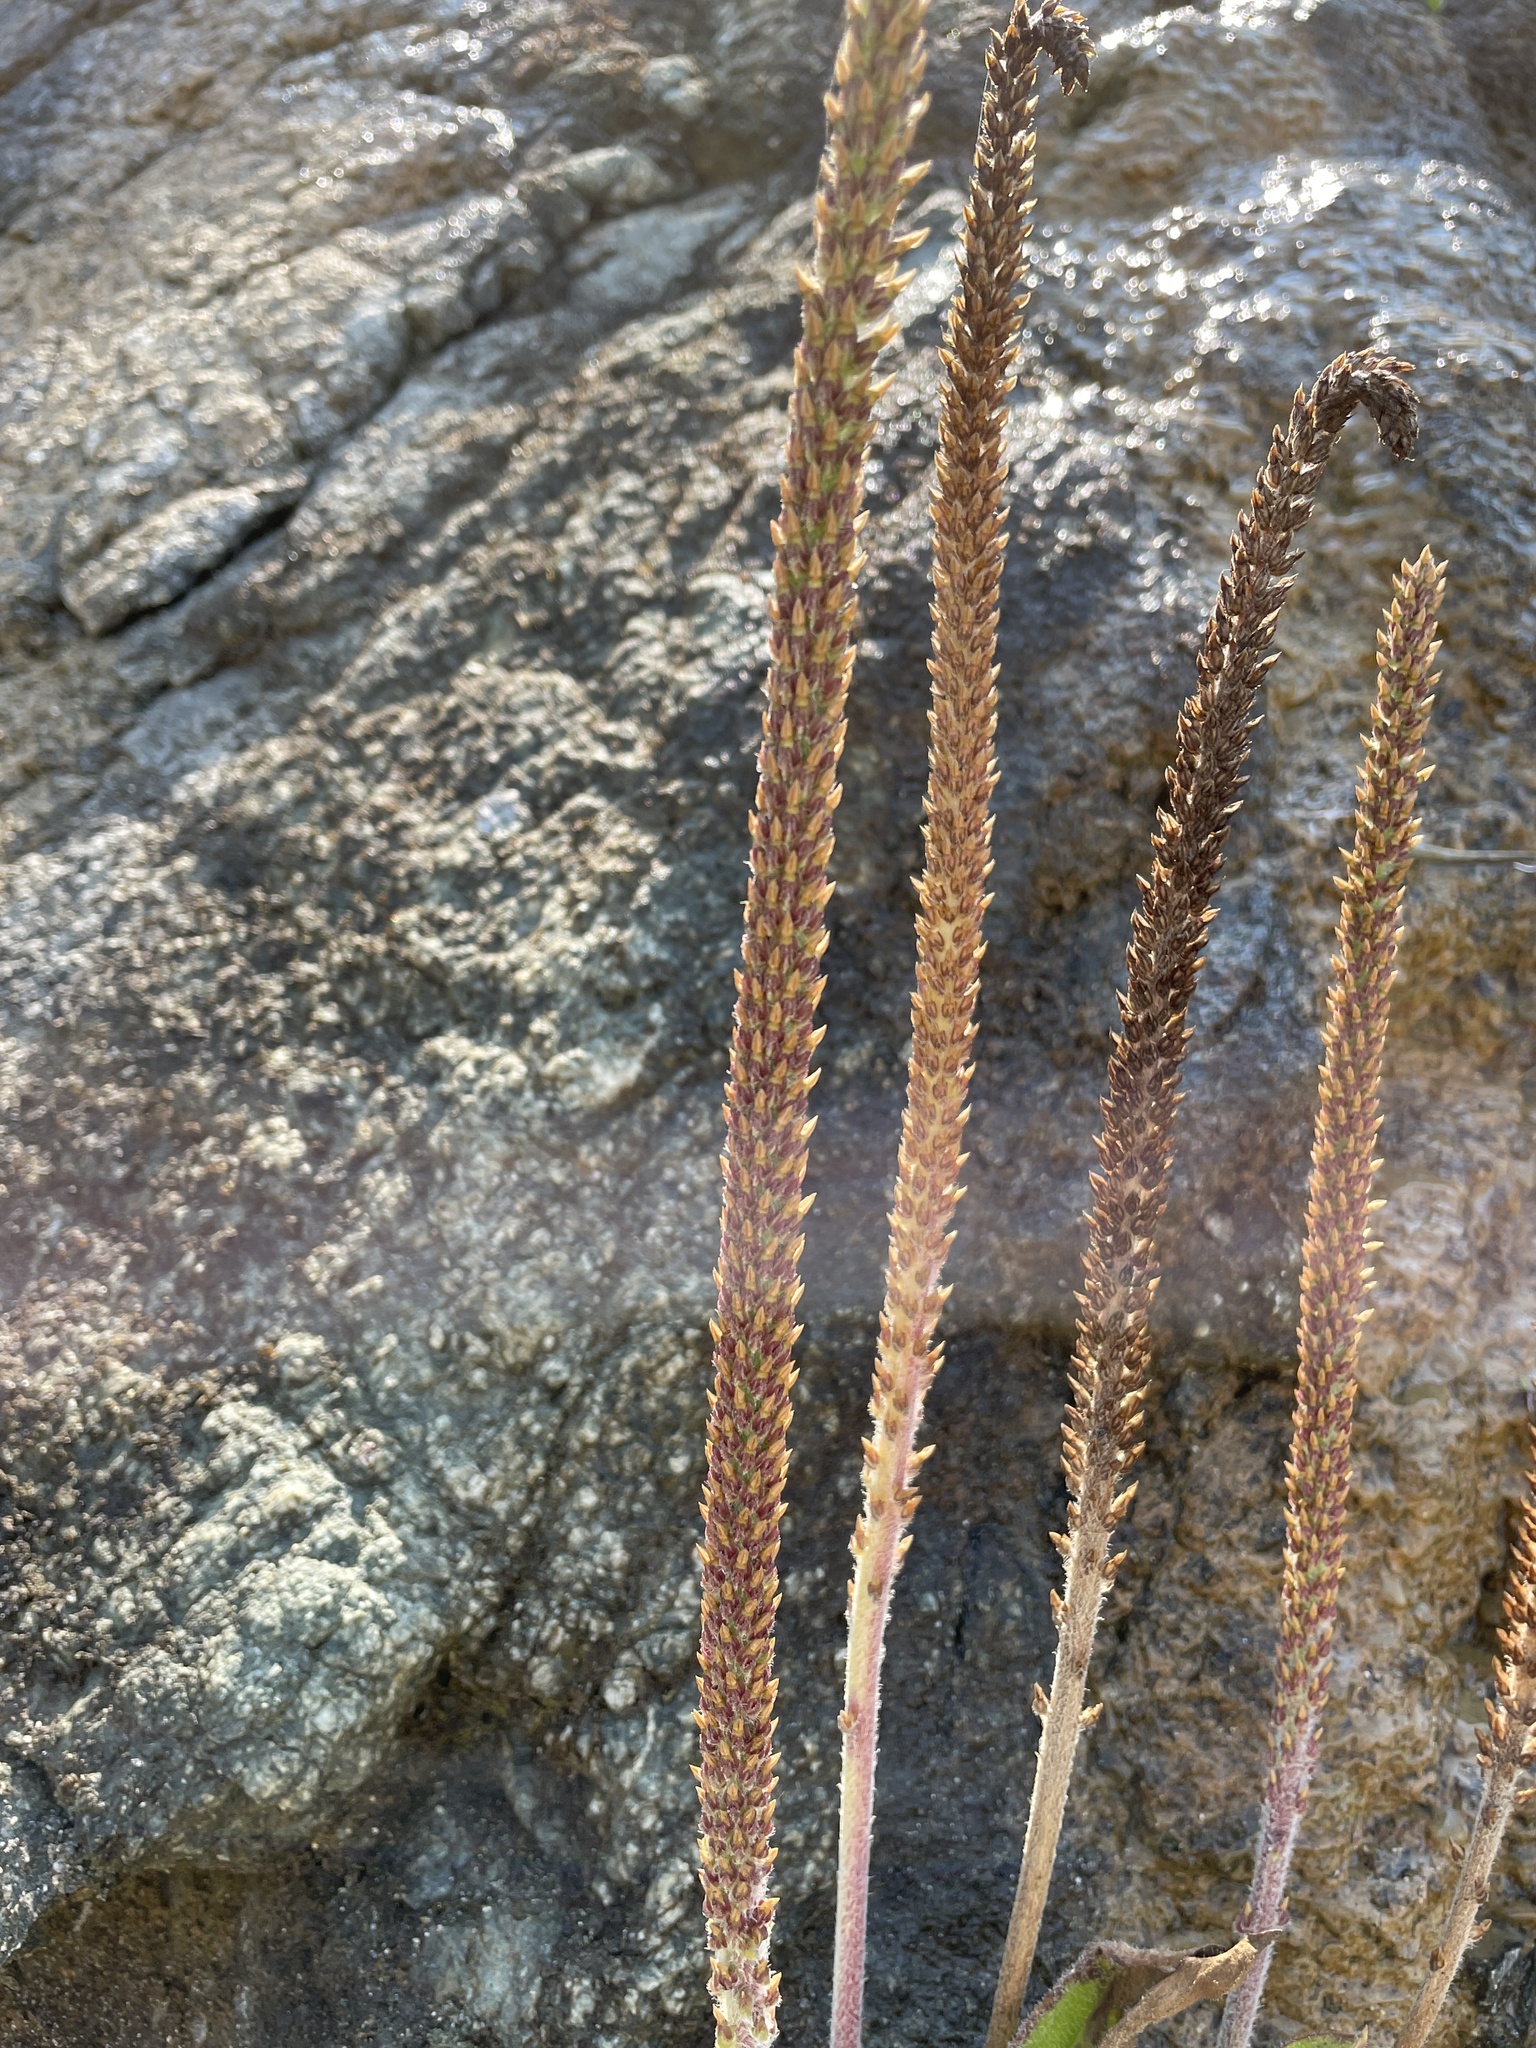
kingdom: Plantae
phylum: Tracheophyta
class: Magnoliopsida
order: Lamiales
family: Plantaginaceae
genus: Plantago
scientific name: Plantago subnuda
